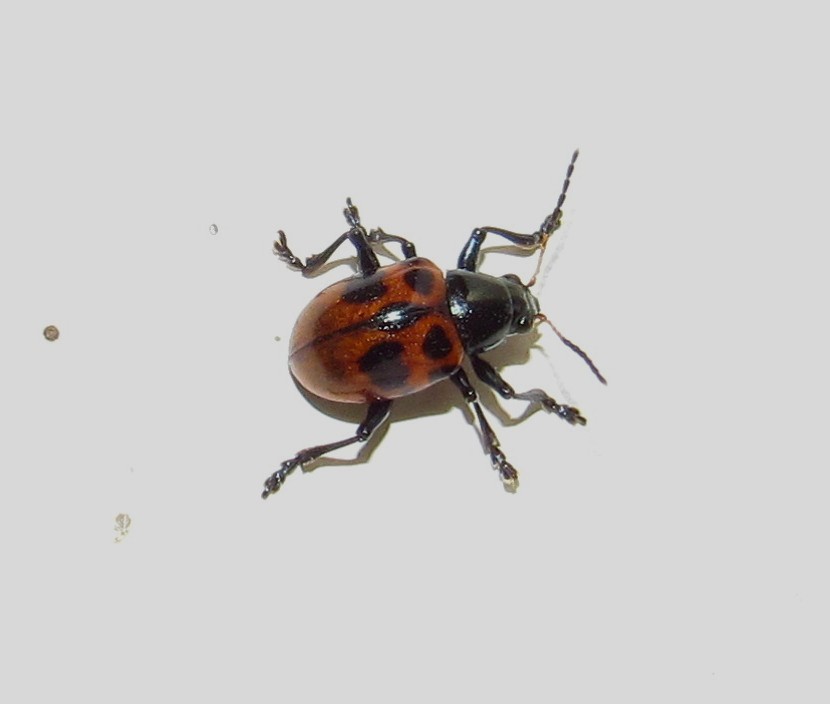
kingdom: Animalia
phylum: Arthropoda
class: Insecta
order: Coleoptera
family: Chrysomelidae
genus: Typophorus
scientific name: Typophorus
